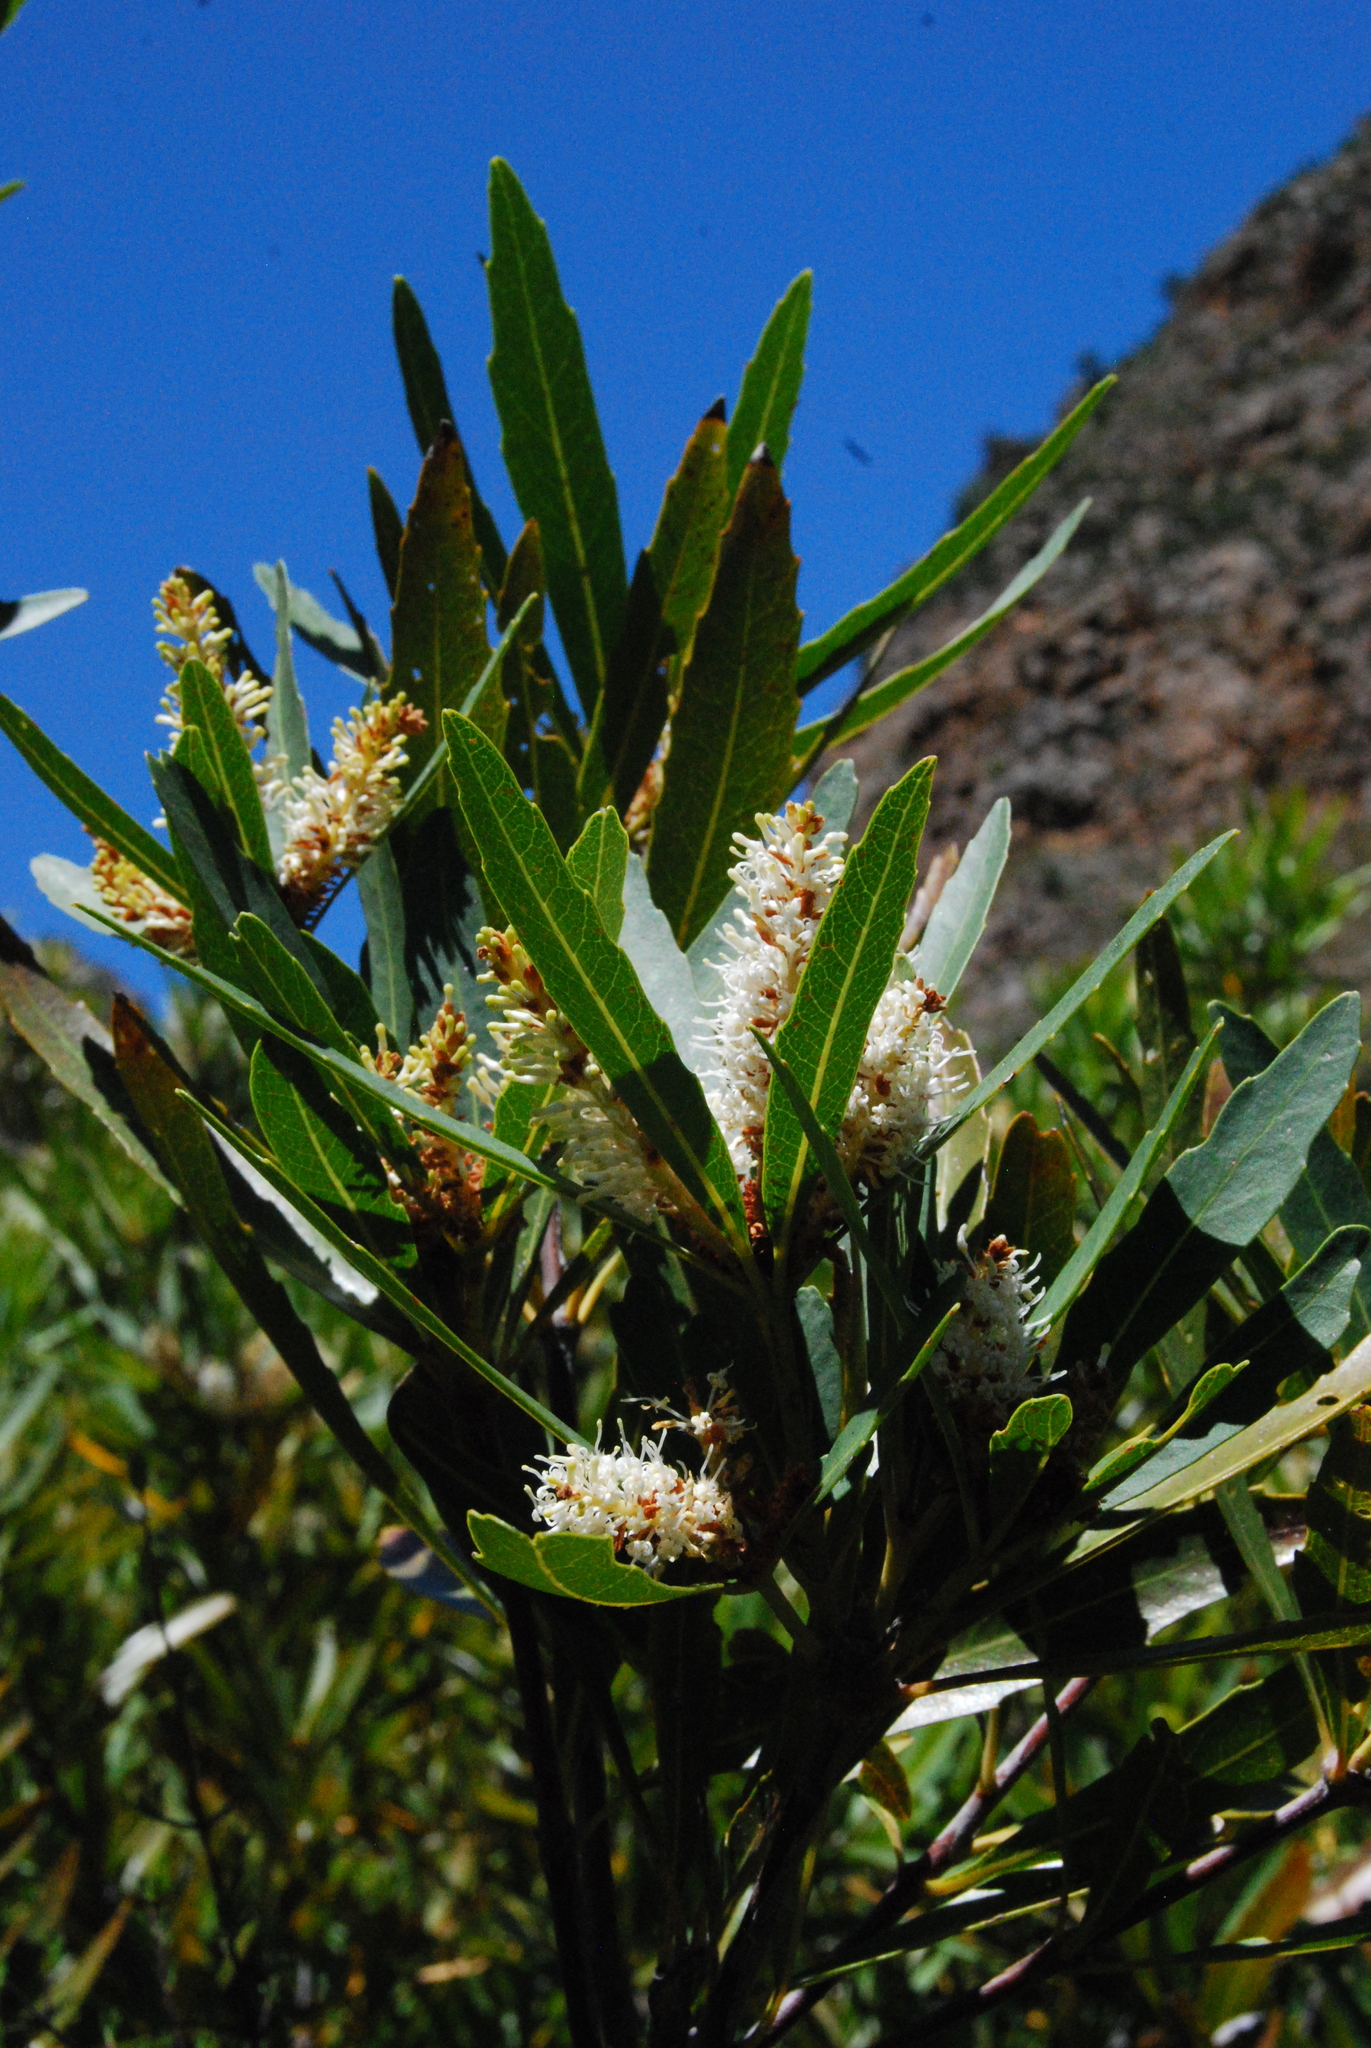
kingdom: Plantae
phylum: Tracheophyta
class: Magnoliopsida
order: Asterales
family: Asteraceae
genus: Brachylaena
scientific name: Brachylaena neriifolia
